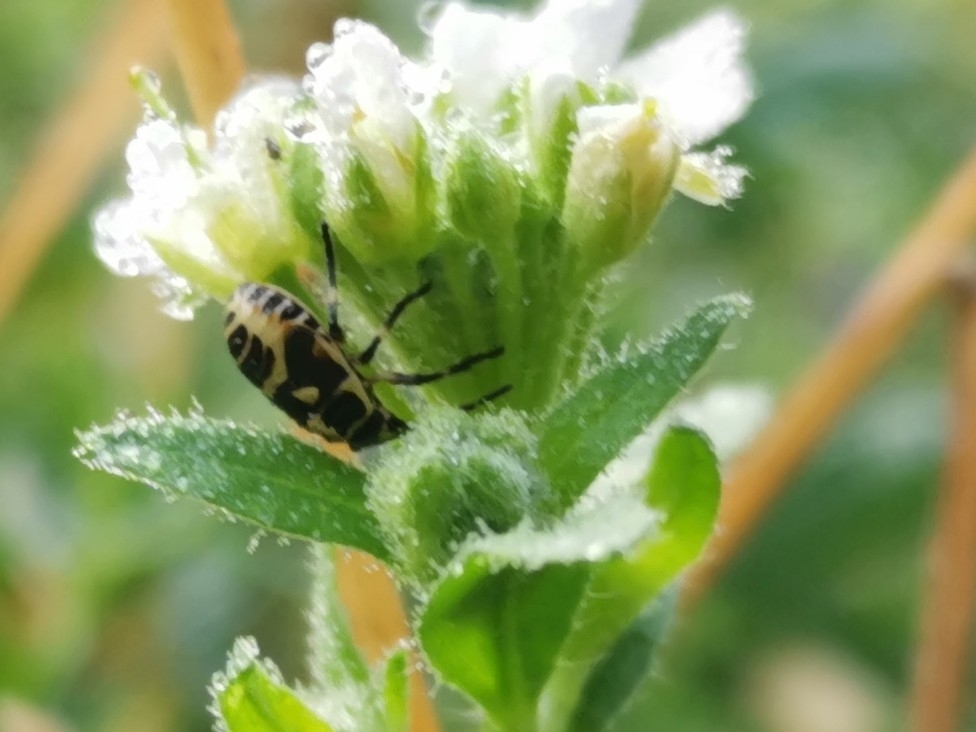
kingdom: Animalia
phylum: Arthropoda
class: Insecta
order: Hemiptera
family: Pentatomidae
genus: Eurydema
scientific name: Eurydema oleracea
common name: Cabbage bug
